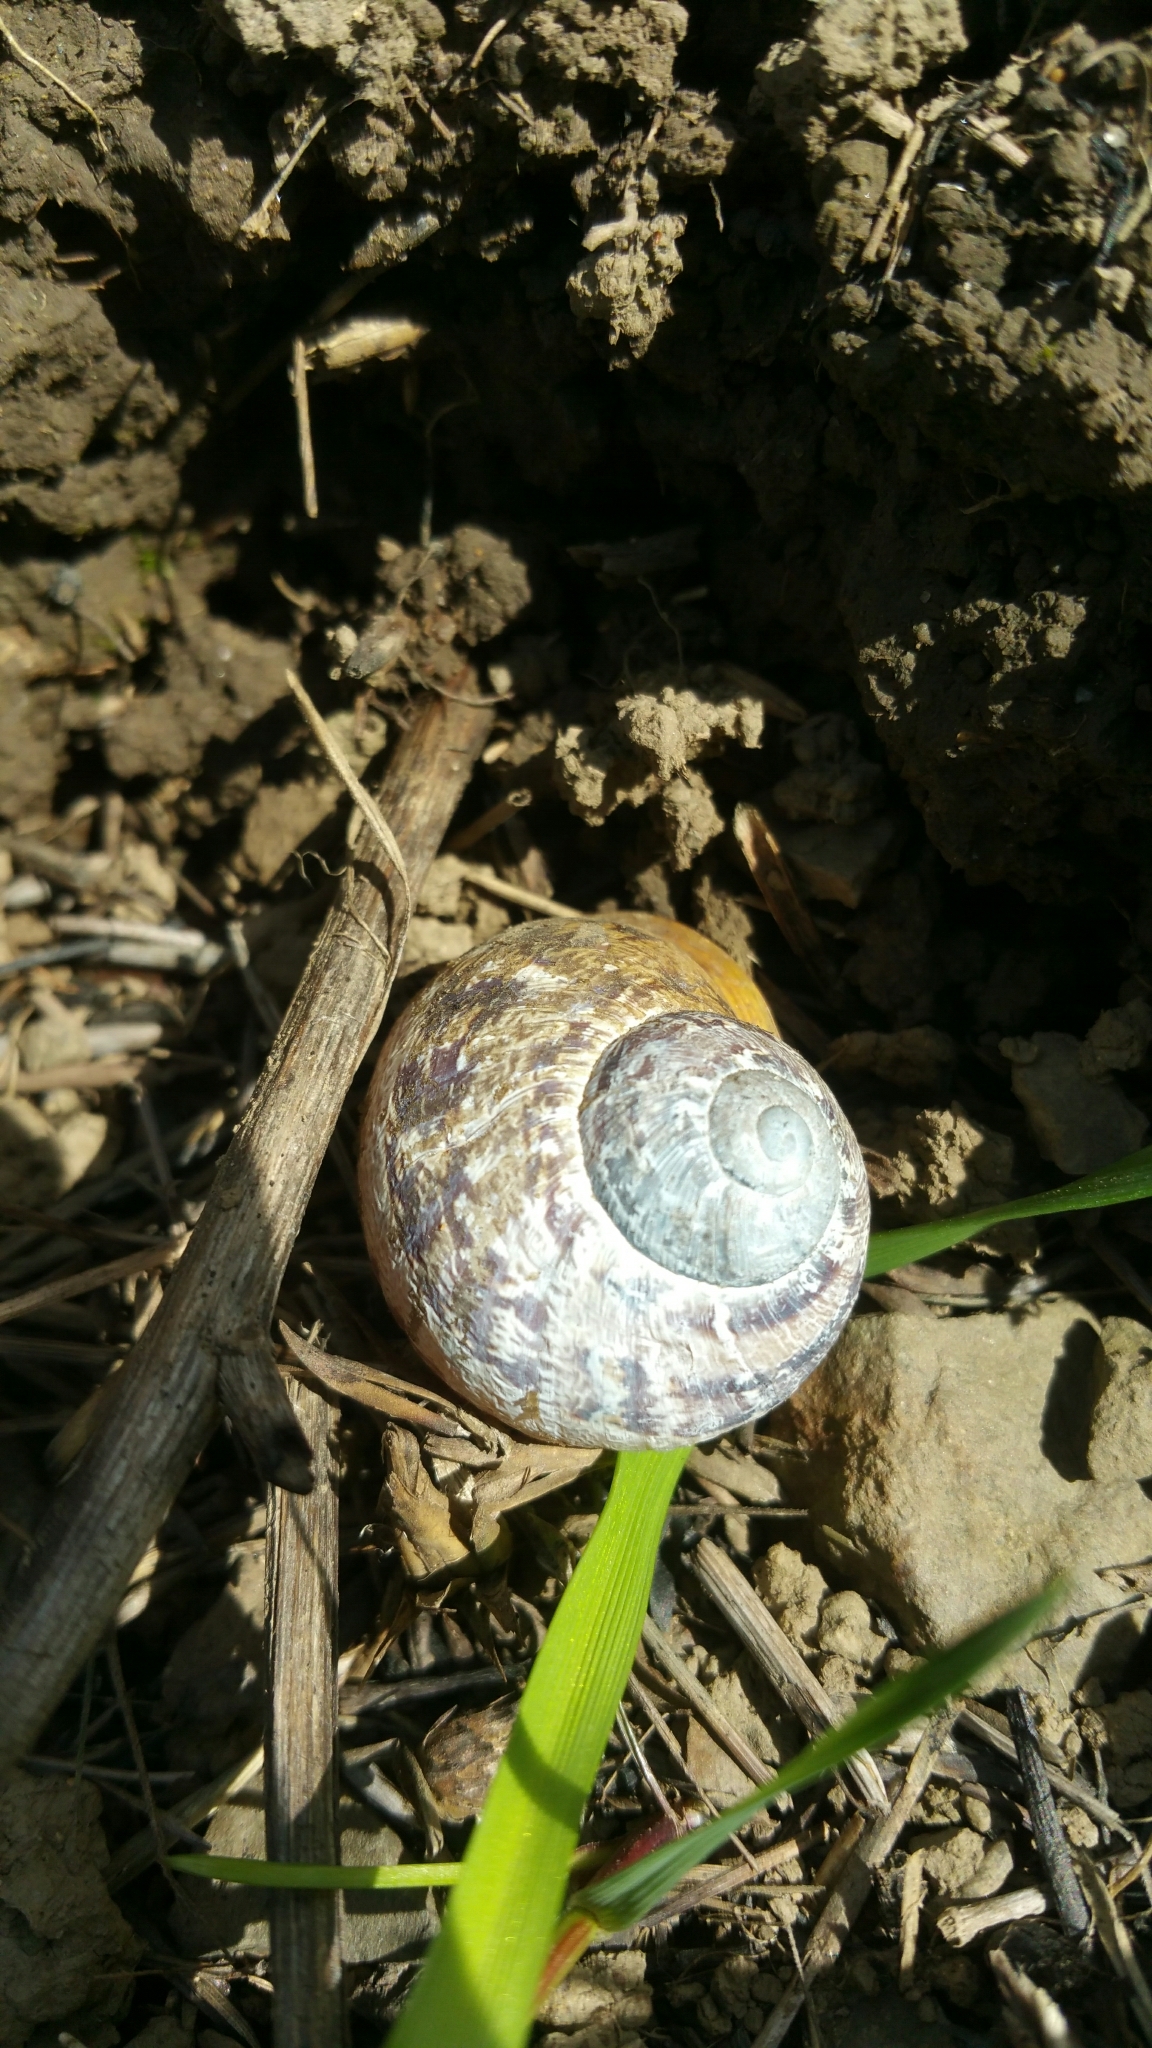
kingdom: Animalia
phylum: Mollusca
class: Gastropoda
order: Stylommatophora
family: Helicidae
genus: Cornu
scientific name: Cornu aspersum
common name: Brown garden snail
